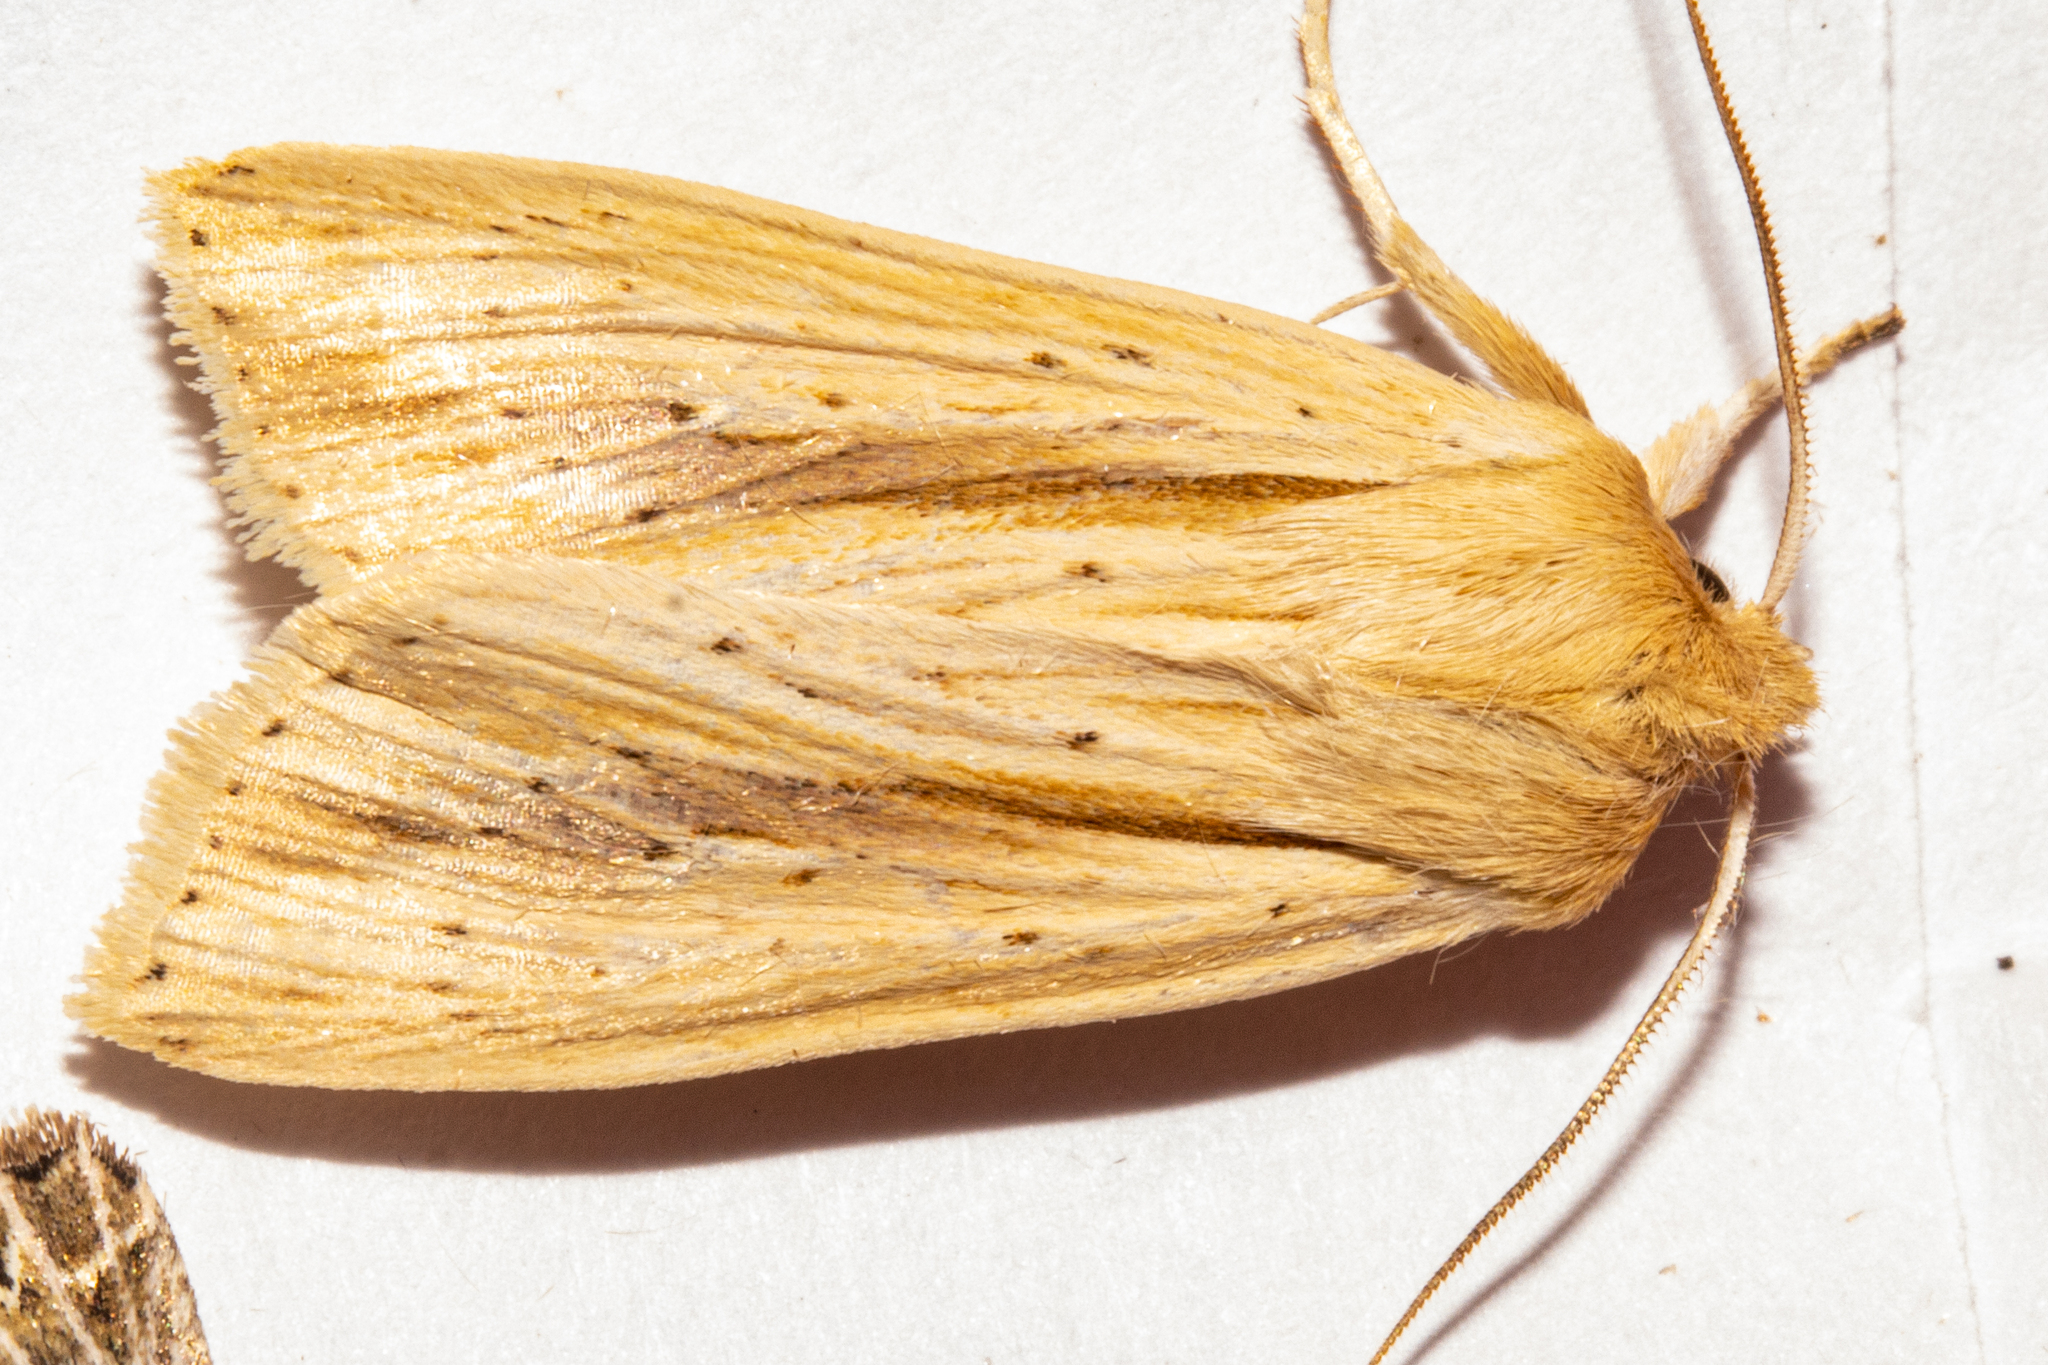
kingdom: Animalia
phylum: Arthropoda
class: Insecta
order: Lepidoptera
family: Noctuidae
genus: Ichneutica
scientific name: Ichneutica semivittata
